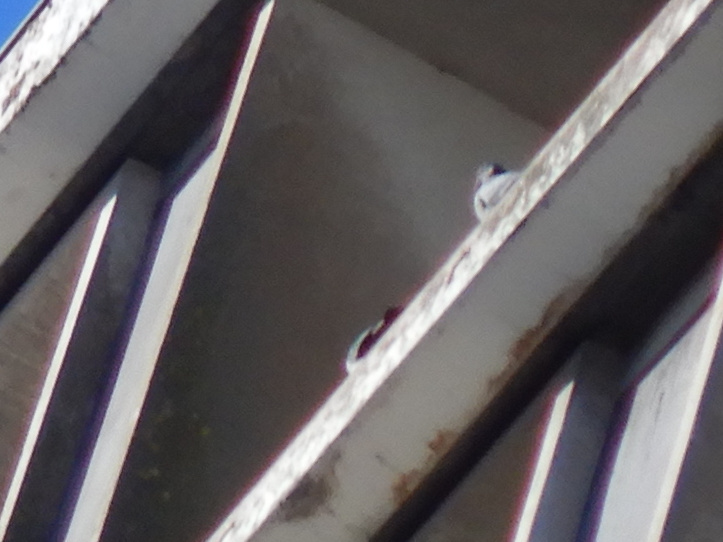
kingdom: Animalia
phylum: Chordata
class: Aves
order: Columbiformes
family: Columbidae
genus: Columba
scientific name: Columba livia
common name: Rock pigeon
